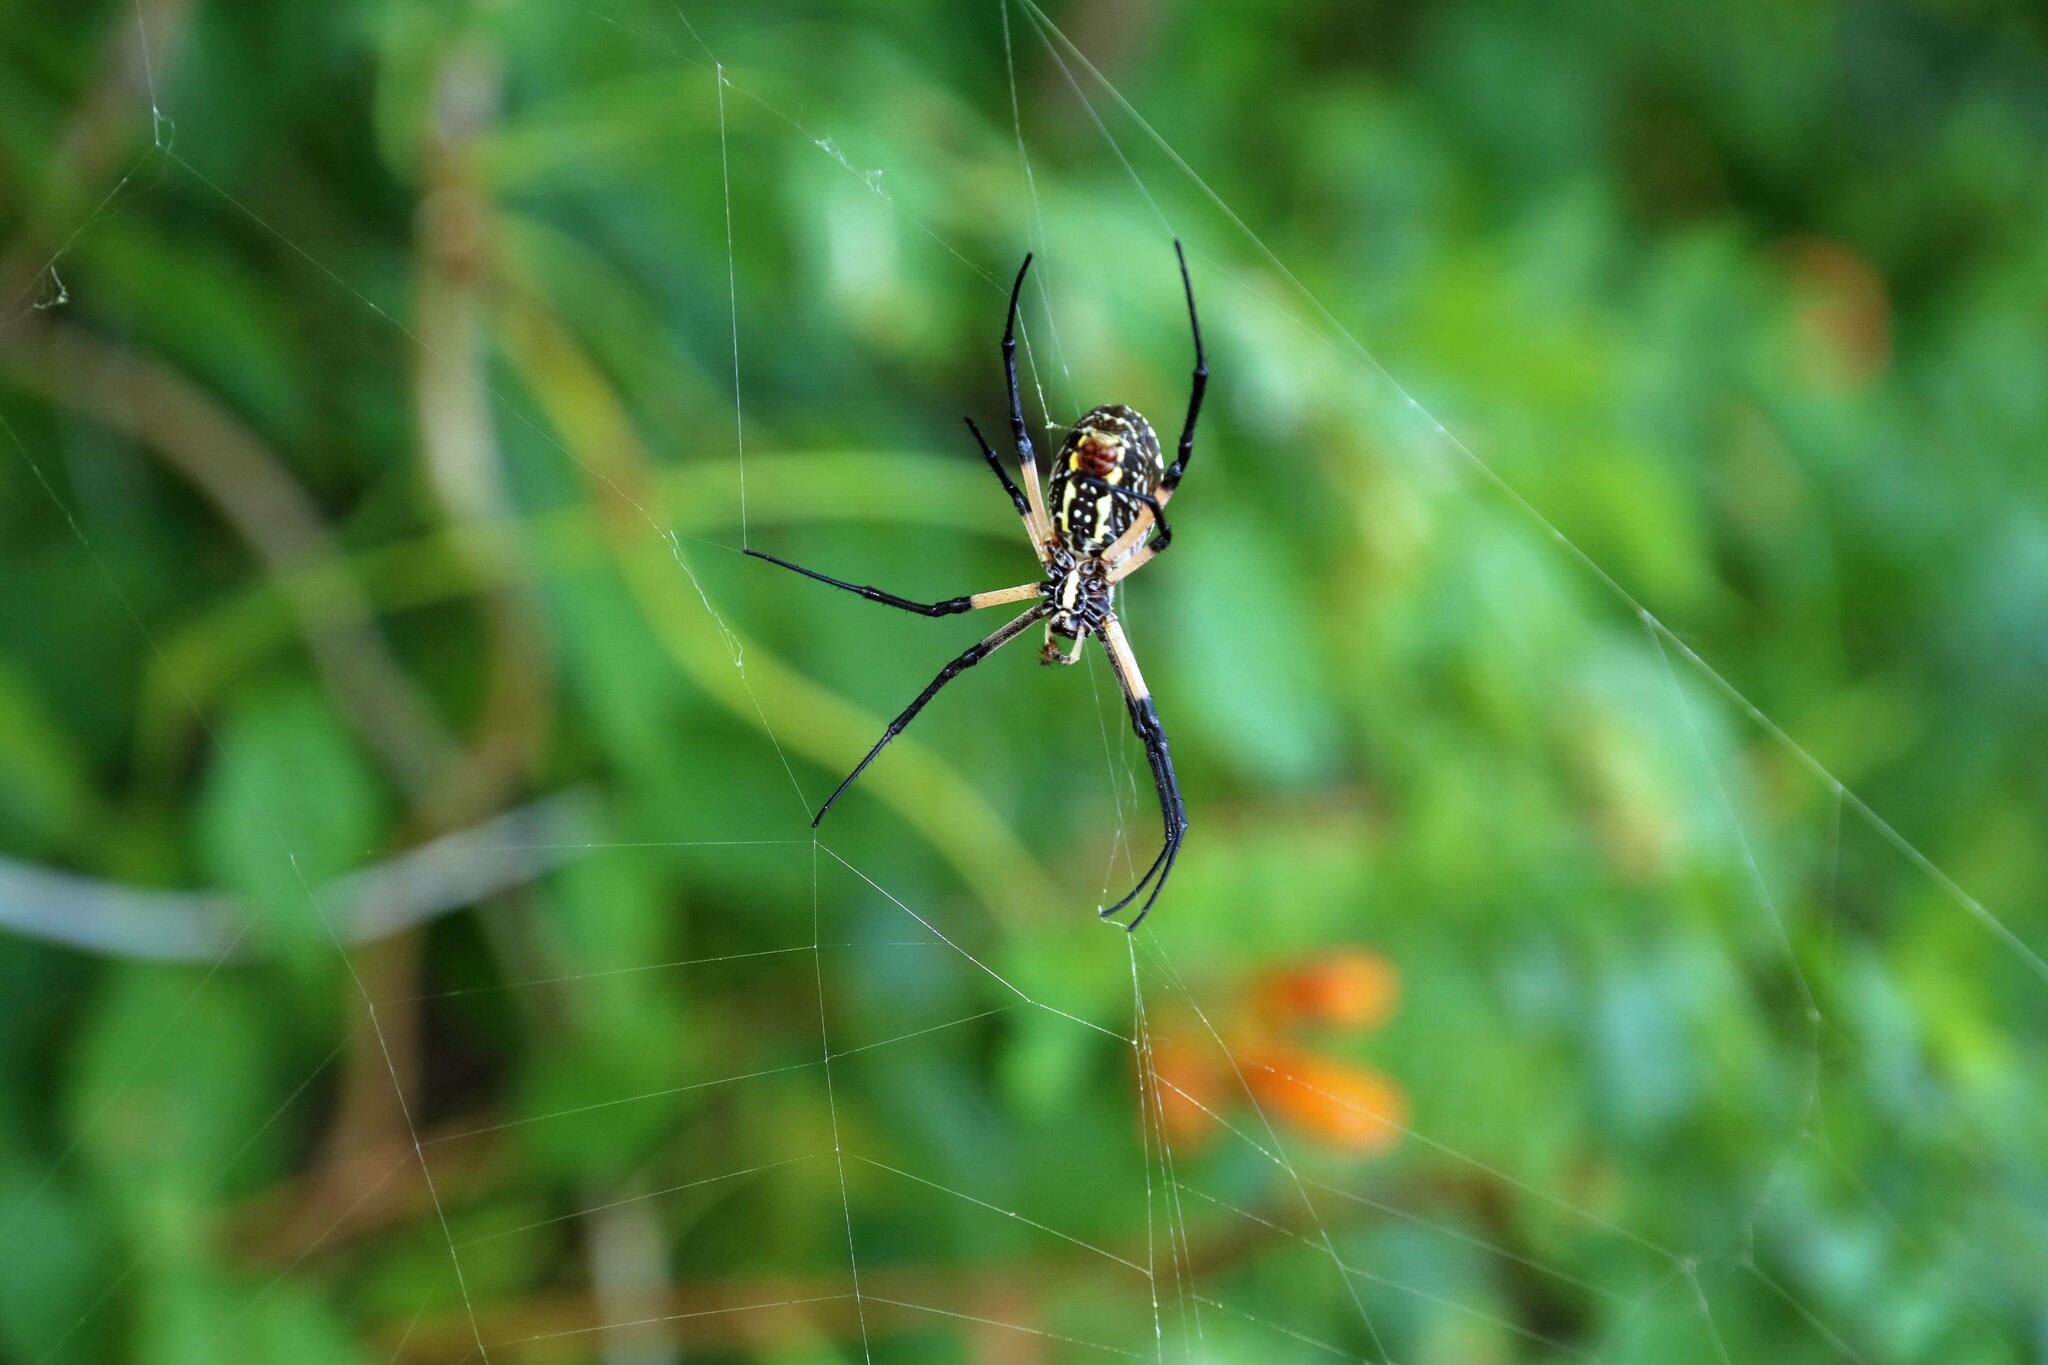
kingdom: Animalia
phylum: Arthropoda
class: Arachnida
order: Araneae
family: Araneidae
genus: Argiope
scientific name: Argiope aurantia
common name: Orb weavers
